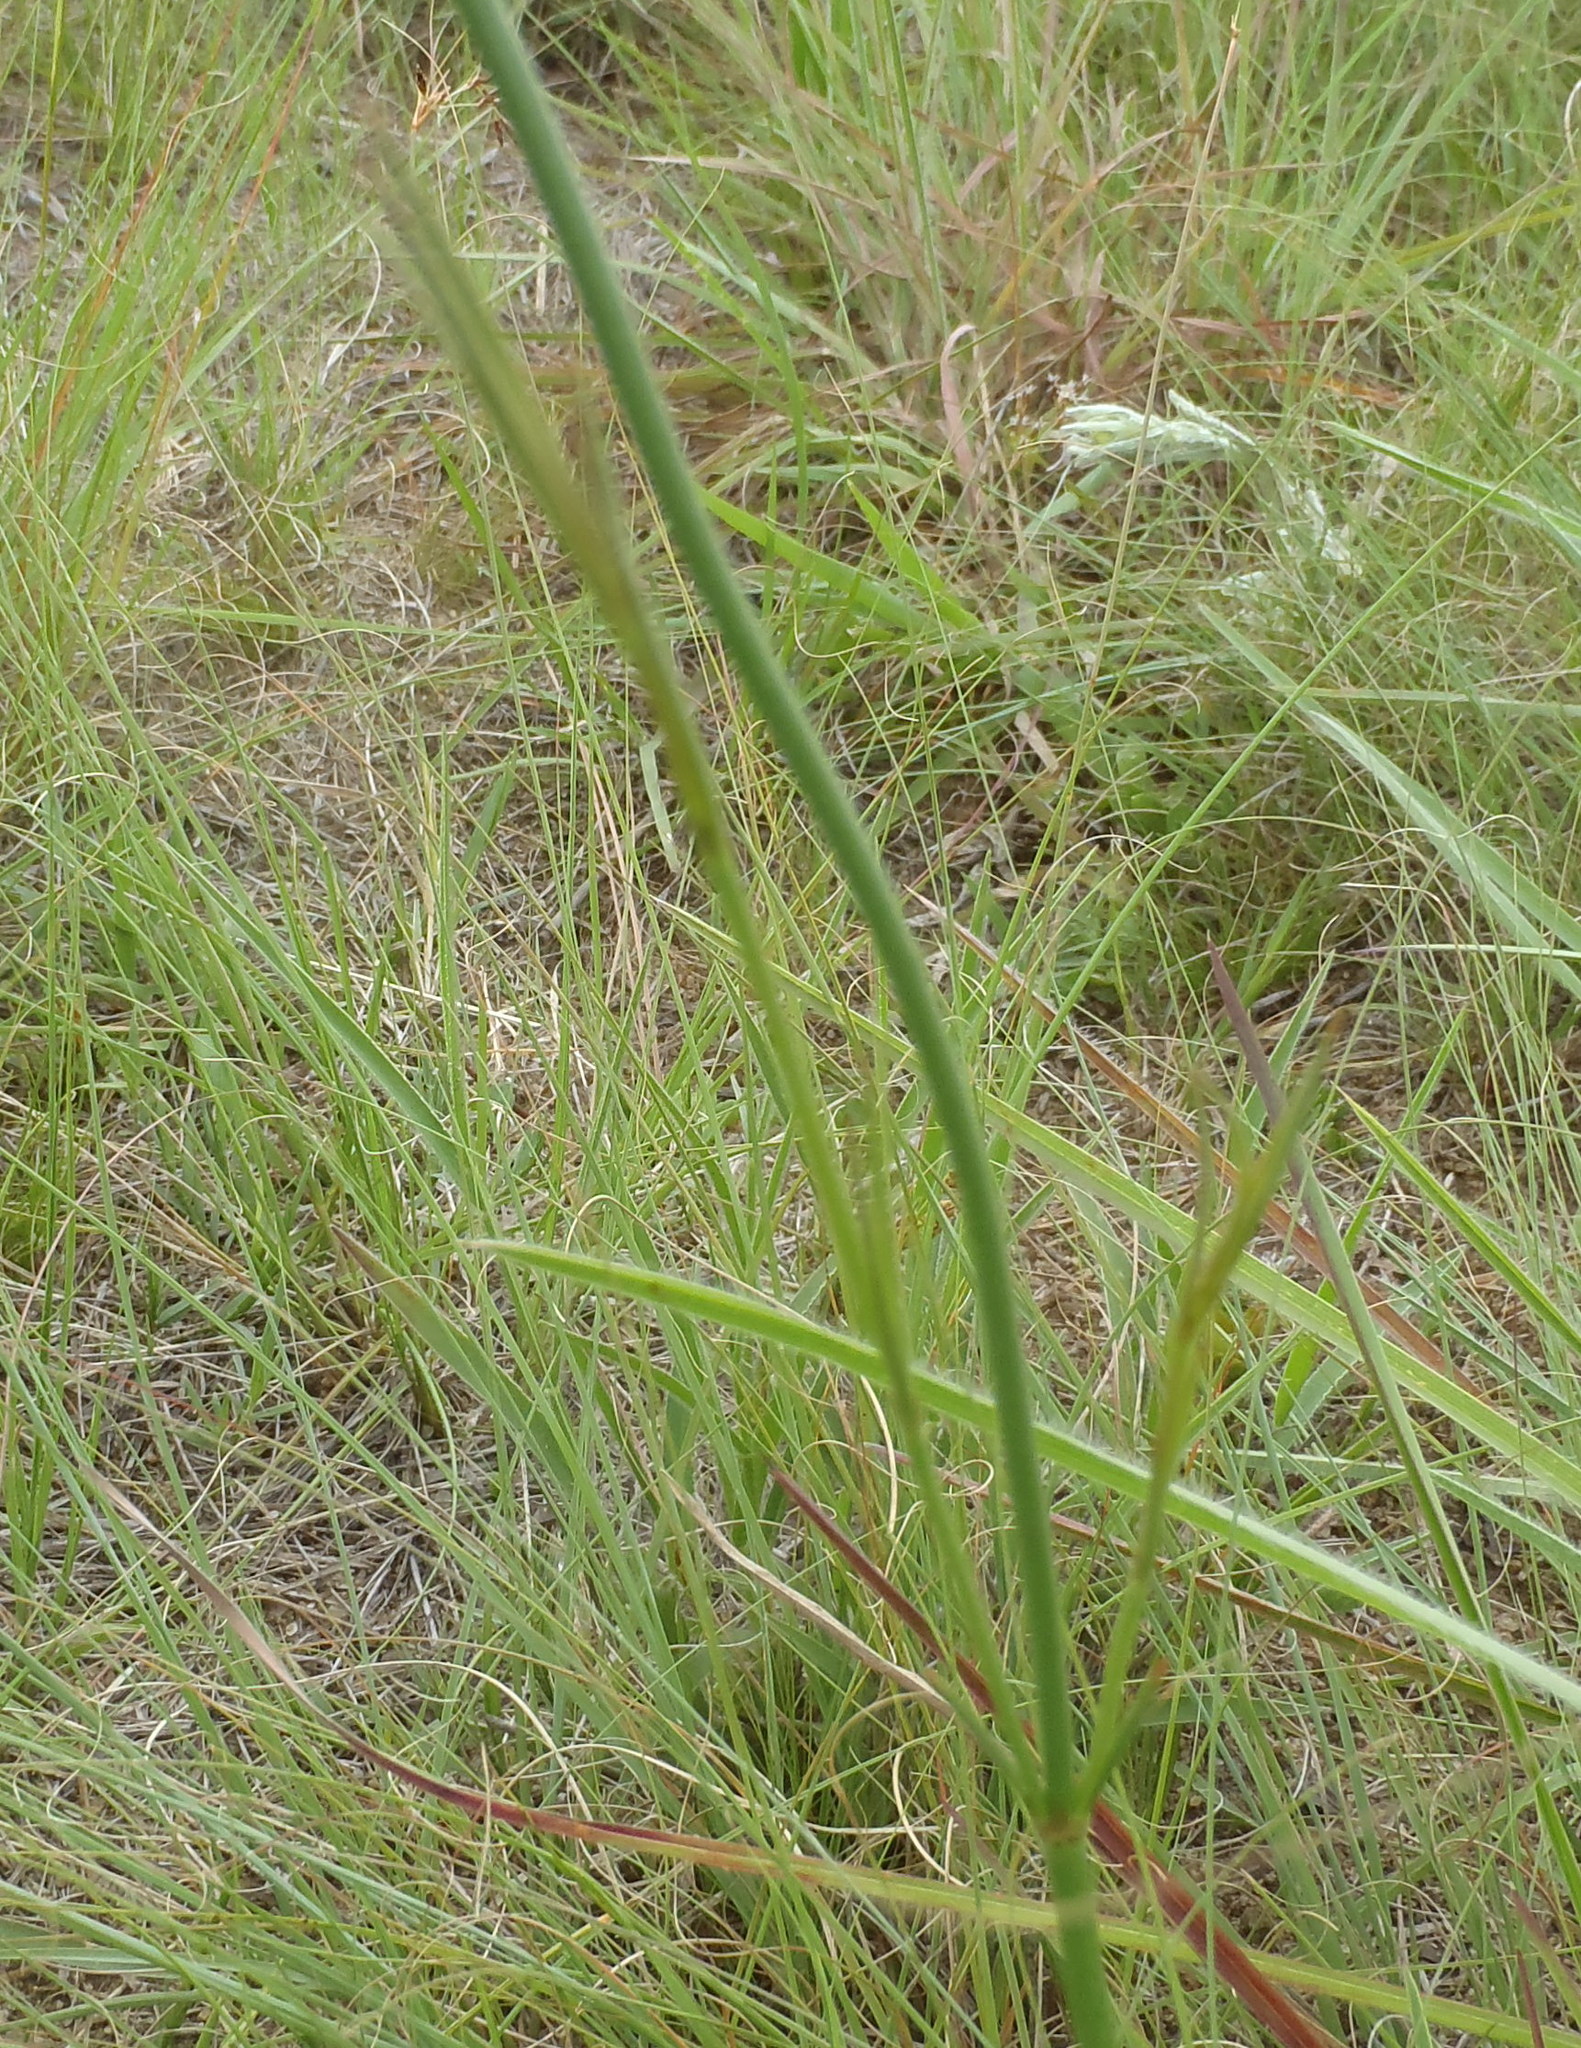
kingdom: Plantae
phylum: Tracheophyta
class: Magnoliopsida
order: Gentianales
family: Rubiaceae
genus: Kohautia
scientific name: Kohautia amatymbica
